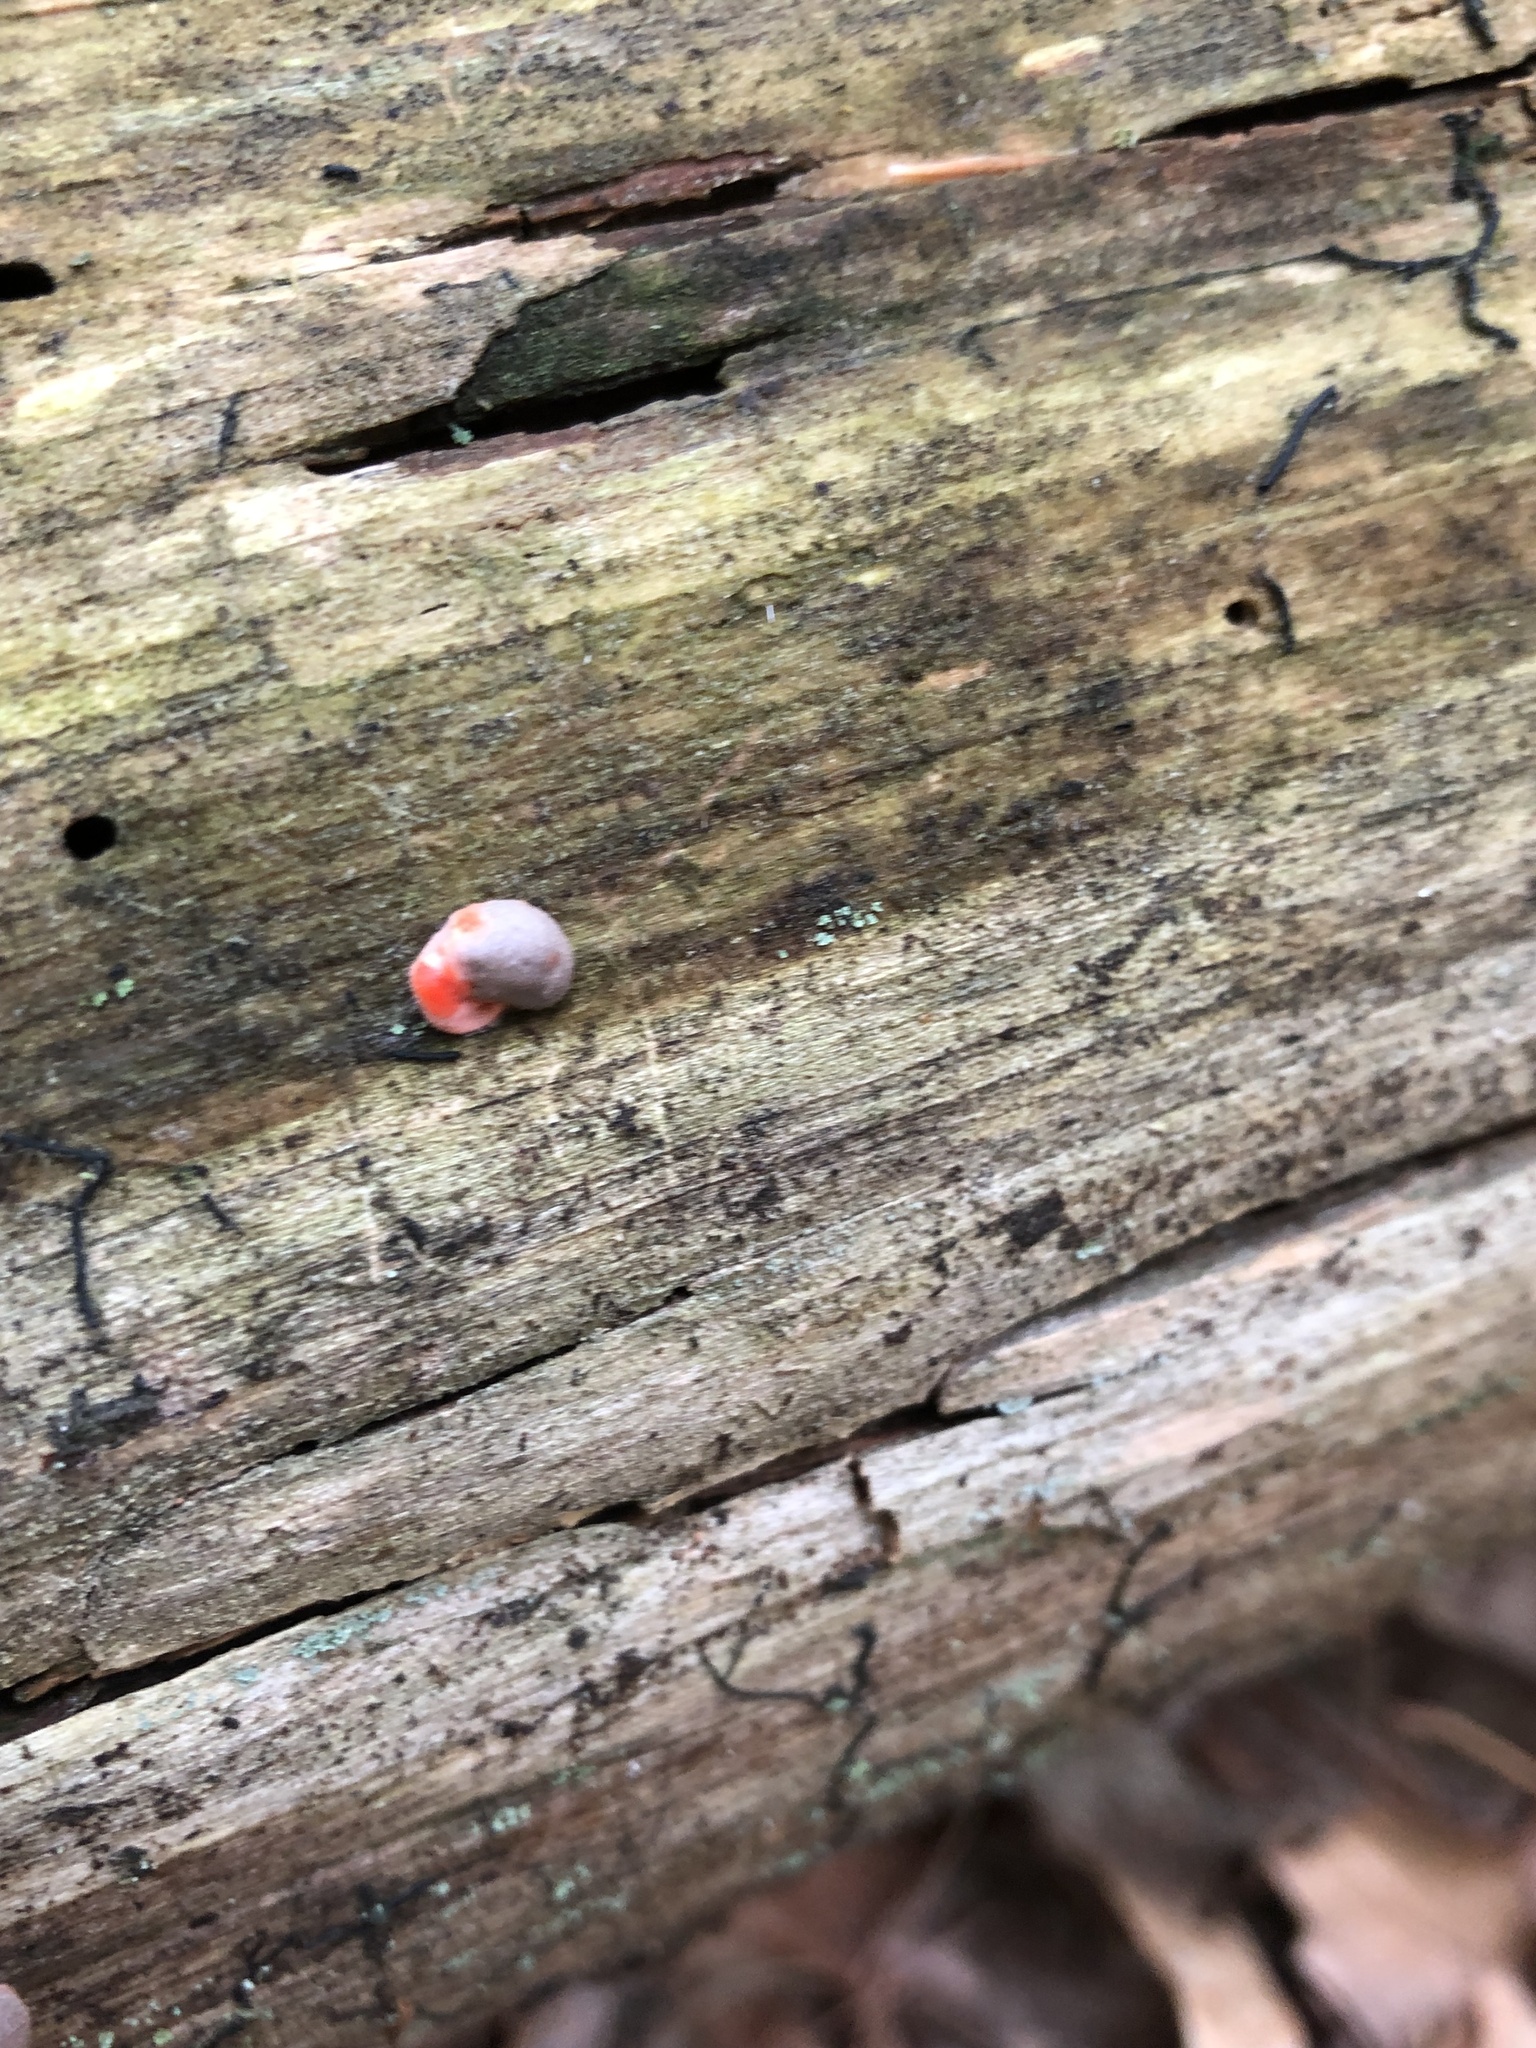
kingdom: Protozoa
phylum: Mycetozoa
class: Myxomycetes
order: Cribrariales
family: Tubiferaceae
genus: Lycogala
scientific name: Lycogala epidendrum
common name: Wolf's milk
